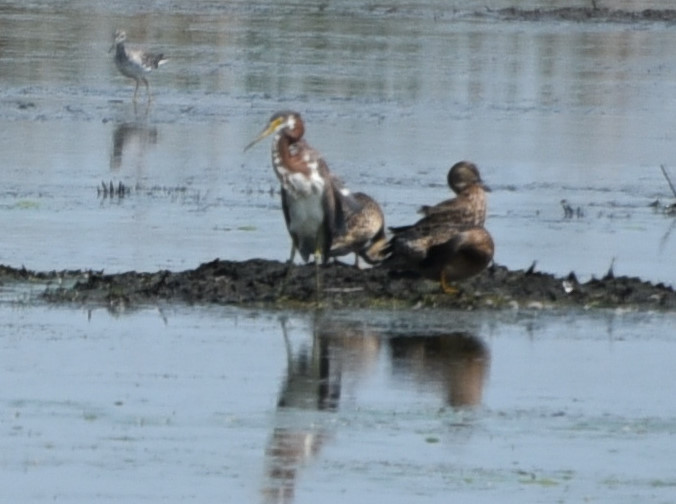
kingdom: Animalia
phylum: Chordata
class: Aves
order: Pelecaniformes
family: Ardeidae
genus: Egretta
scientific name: Egretta tricolor
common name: Tricolored heron
